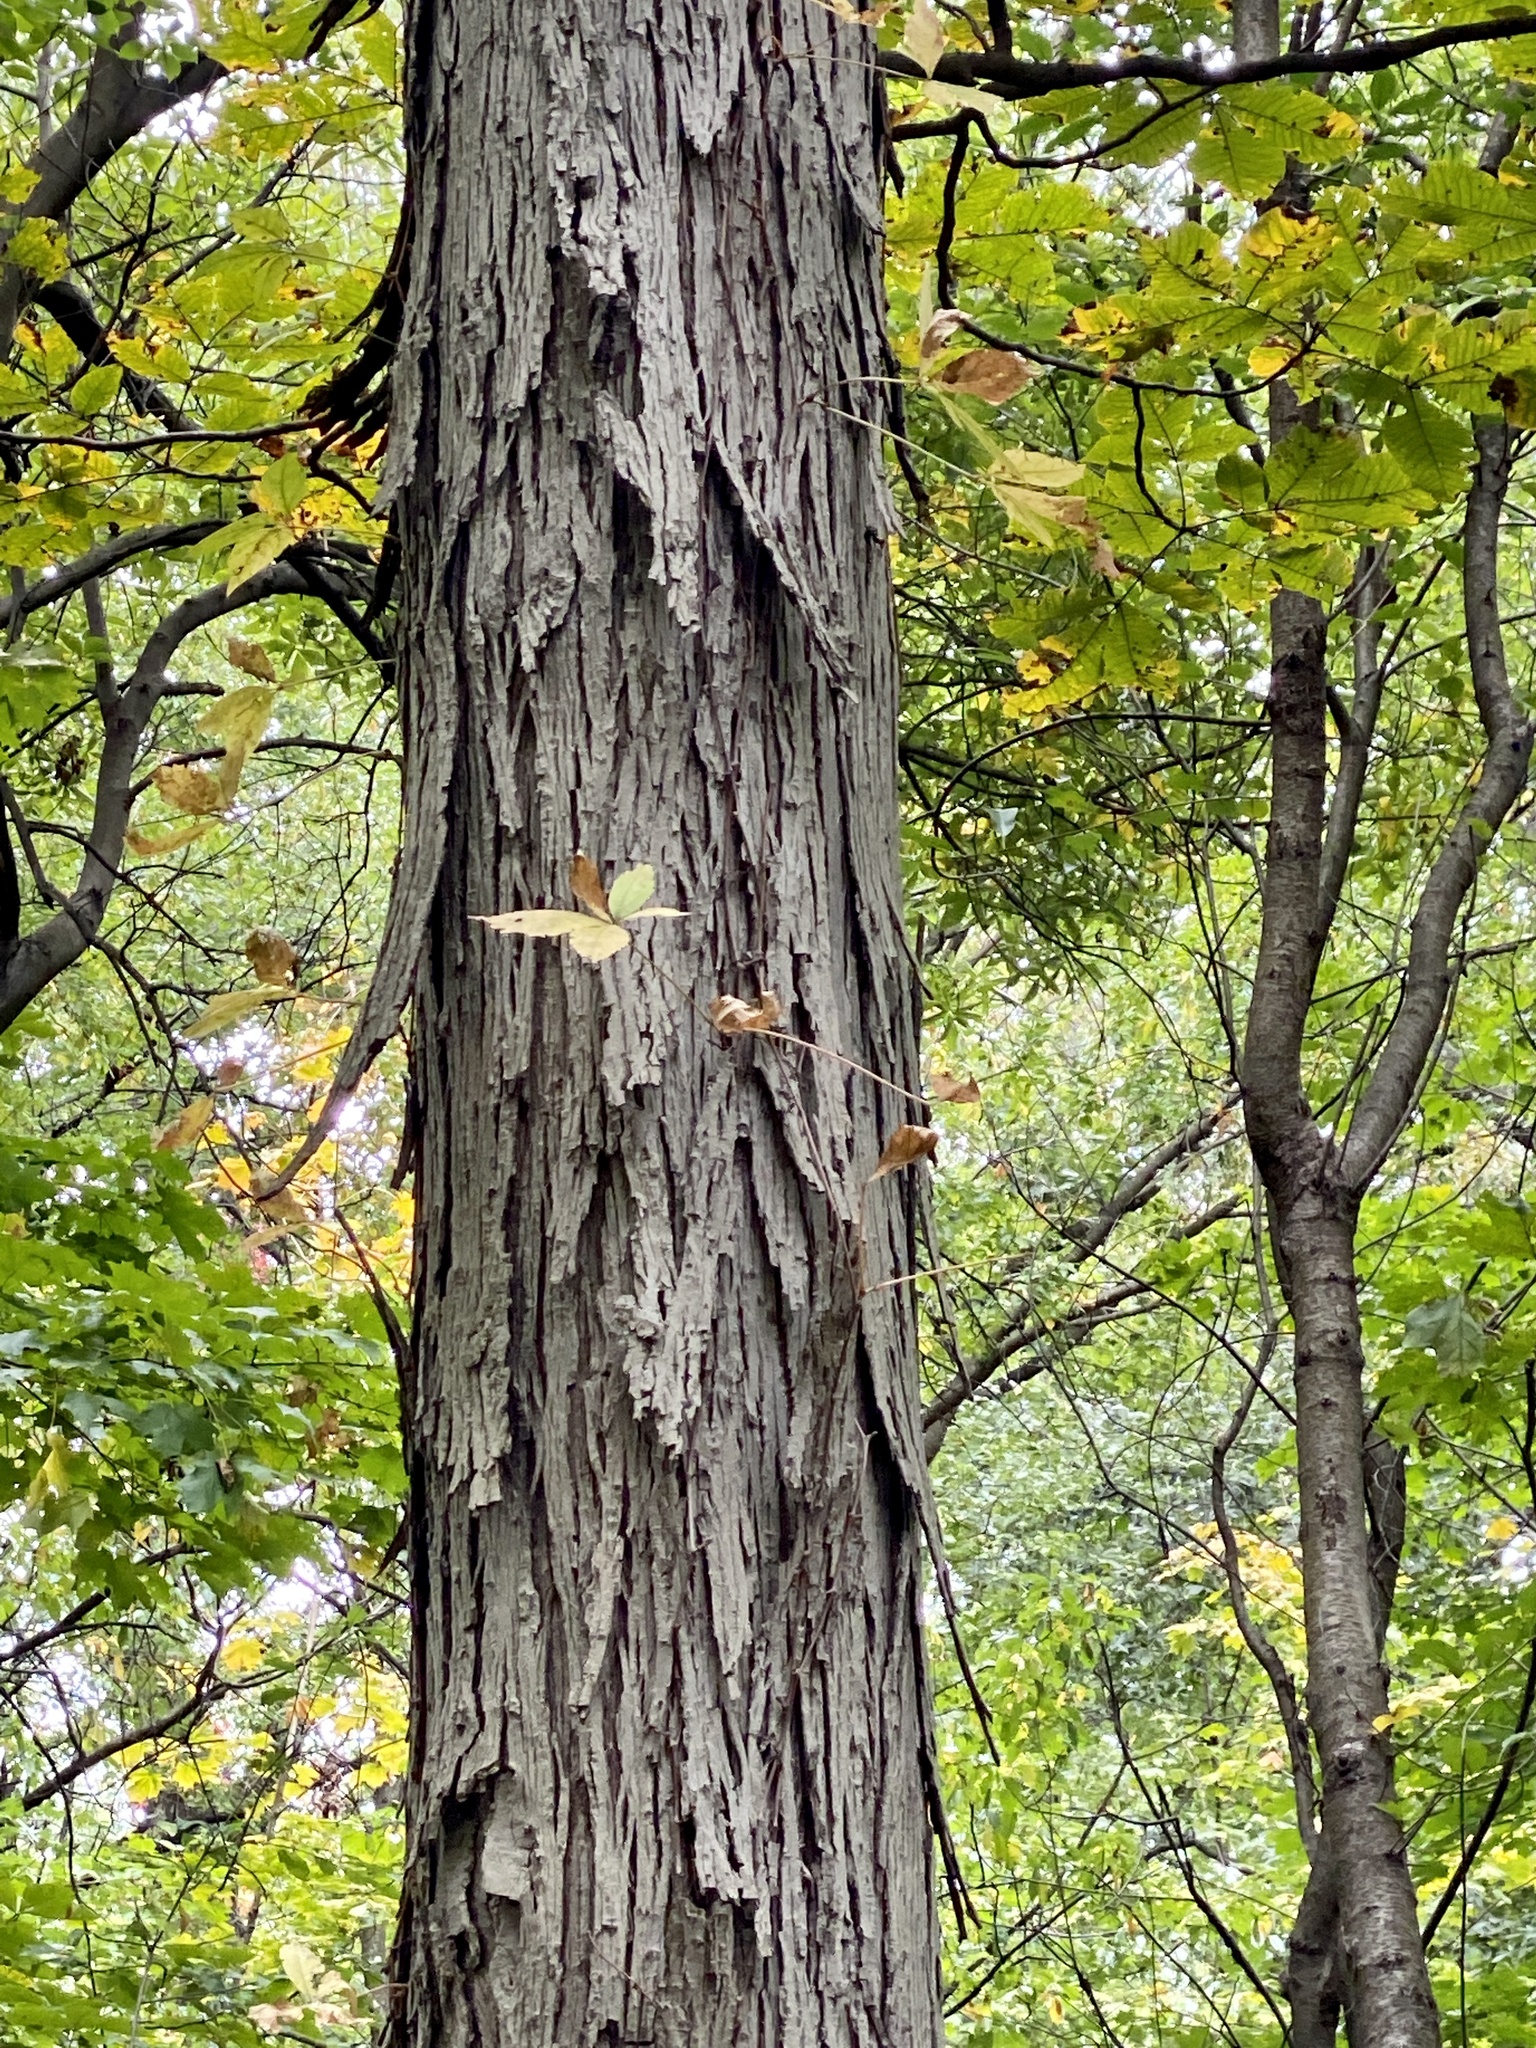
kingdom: Plantae
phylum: Tracheophyta
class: Magnoliopsida
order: Fagales
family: Juglandaceae
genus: Carya
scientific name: Carya ovata
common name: Shagbark hickory
